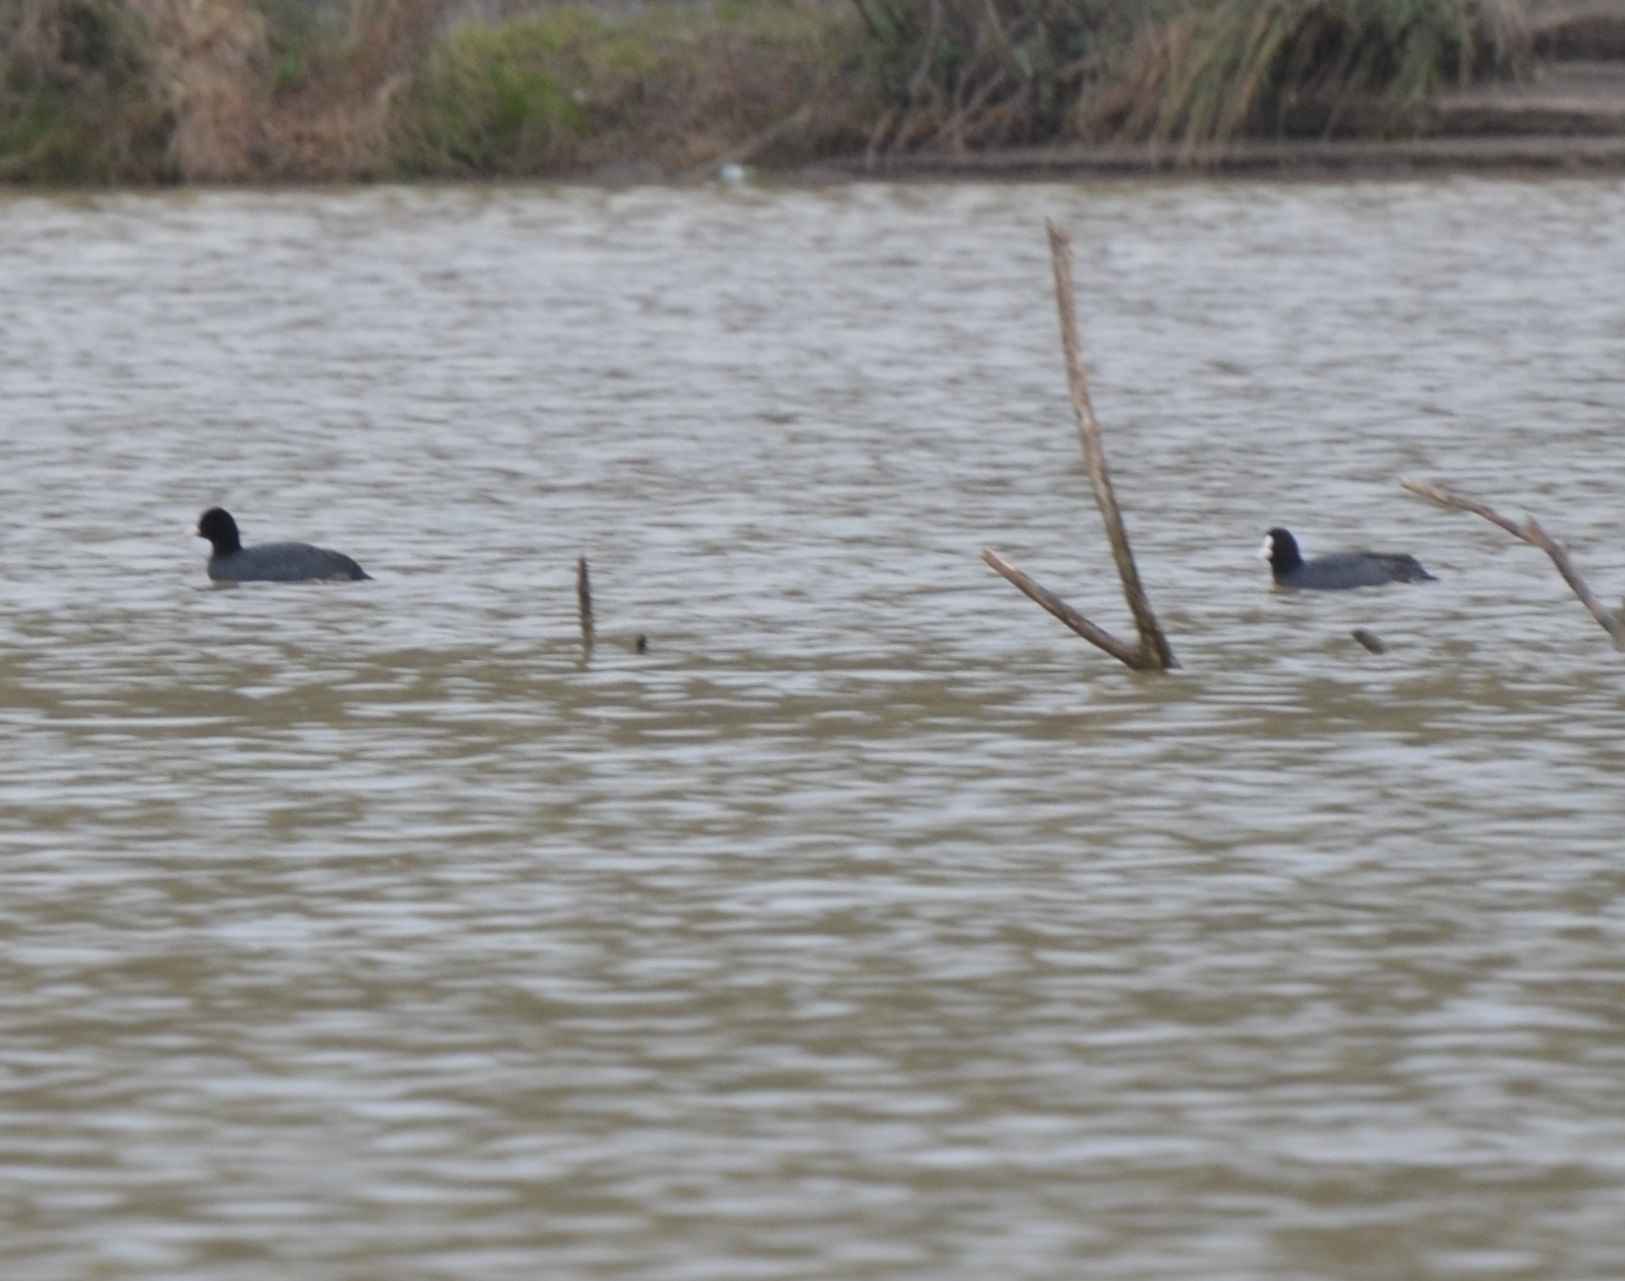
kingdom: Animalia
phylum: Chordata
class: Aves
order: Gruiformes
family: Rallidae
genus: Fulica
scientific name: Fulica atra
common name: Eurasian coot
